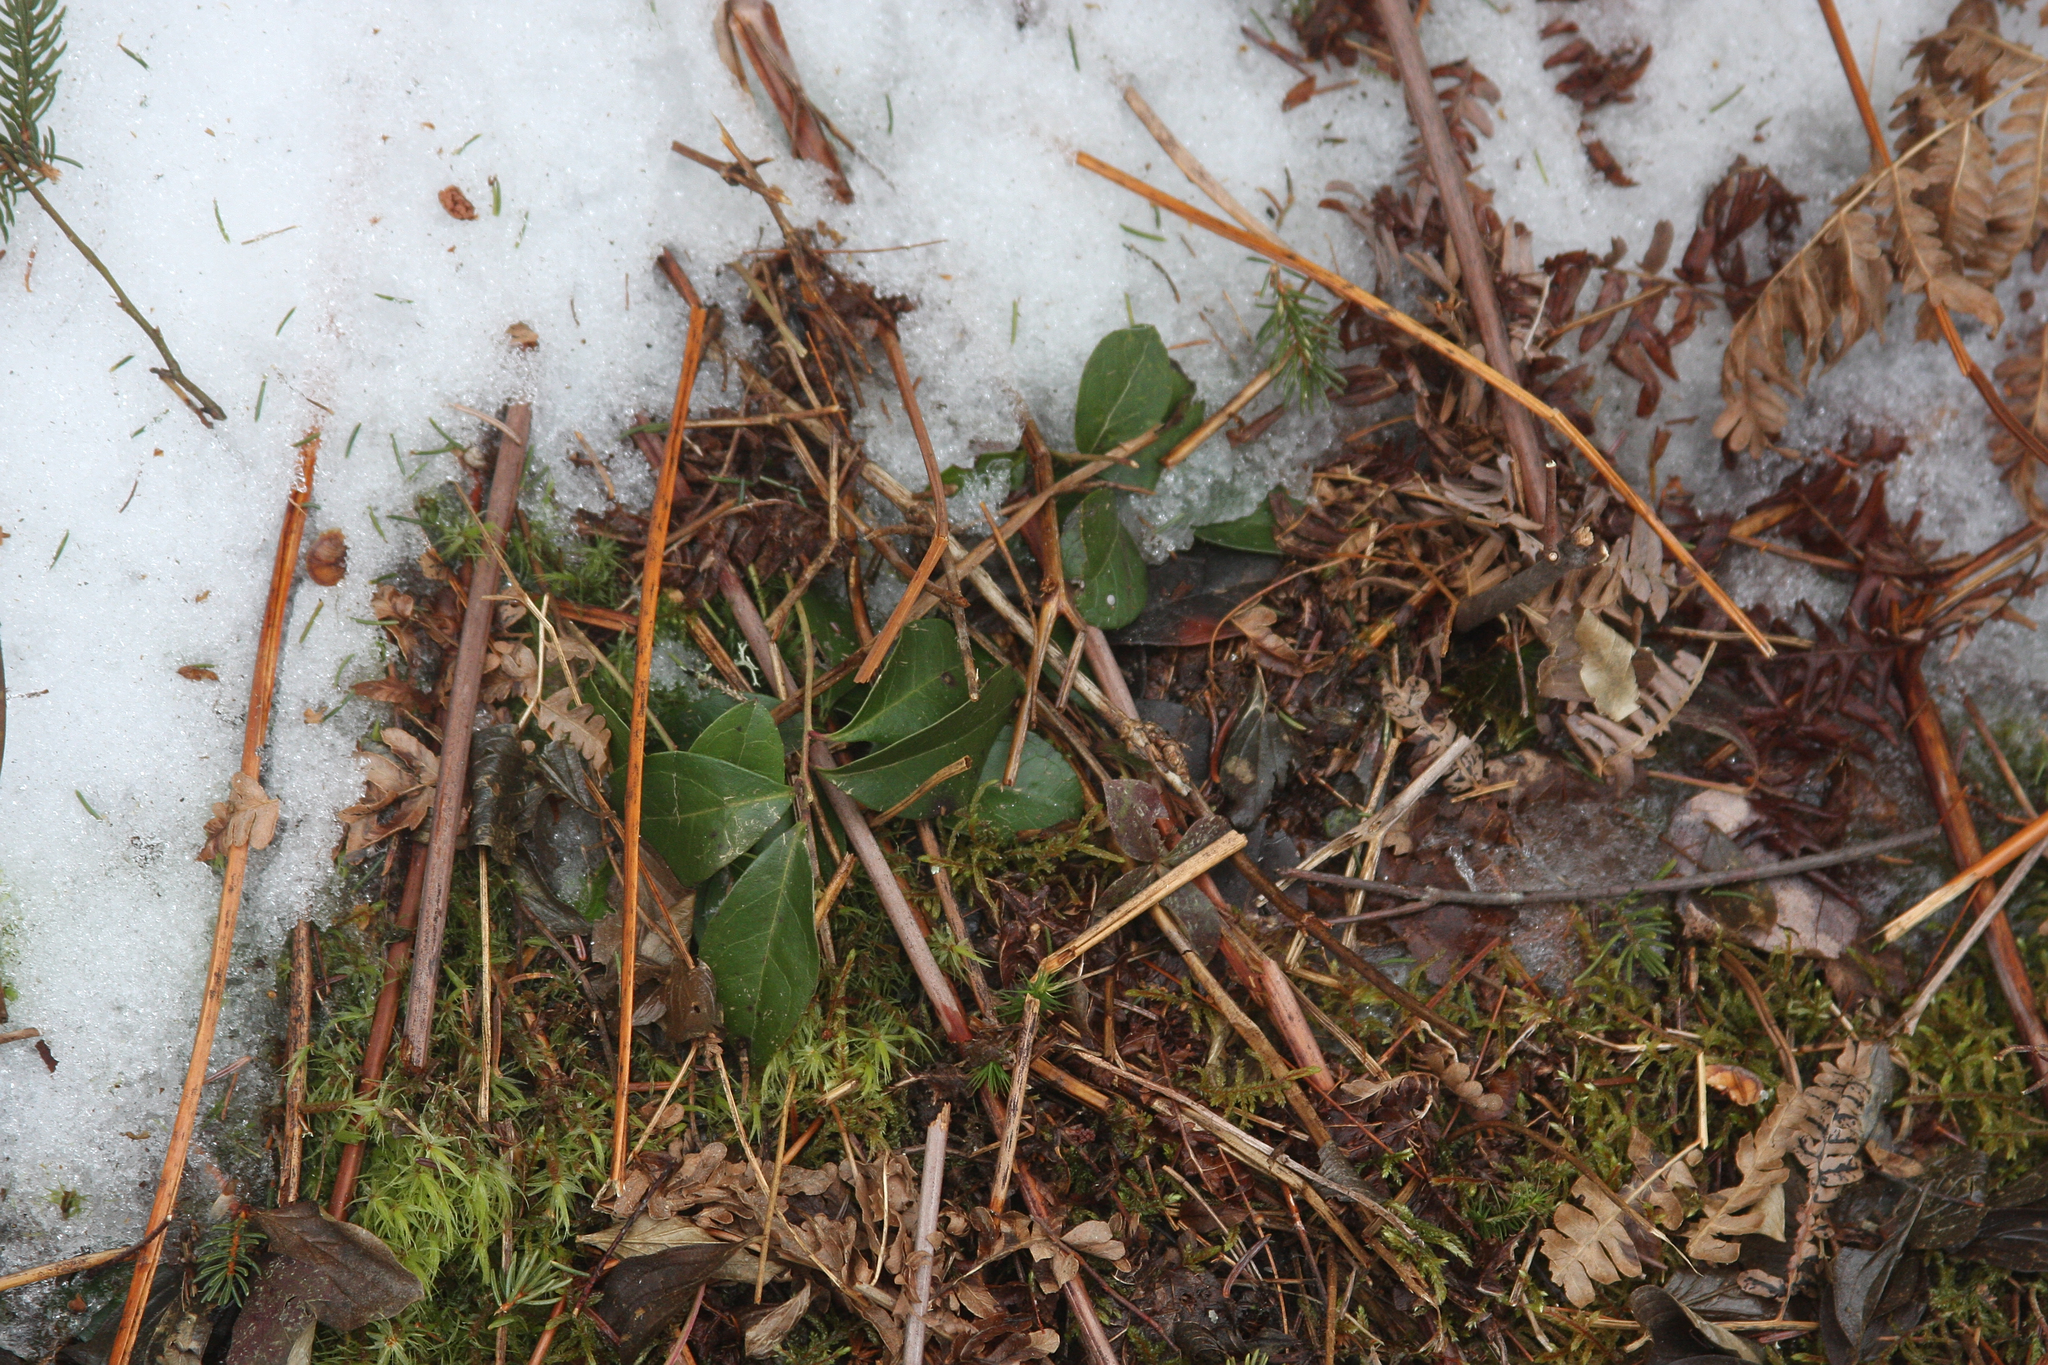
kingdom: Plantae
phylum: Tracheophyta
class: Magnoliopsida
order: Ericales
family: Ericaceae
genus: Gaultheria
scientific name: Gaultheria procumbens
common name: Checkerberry
